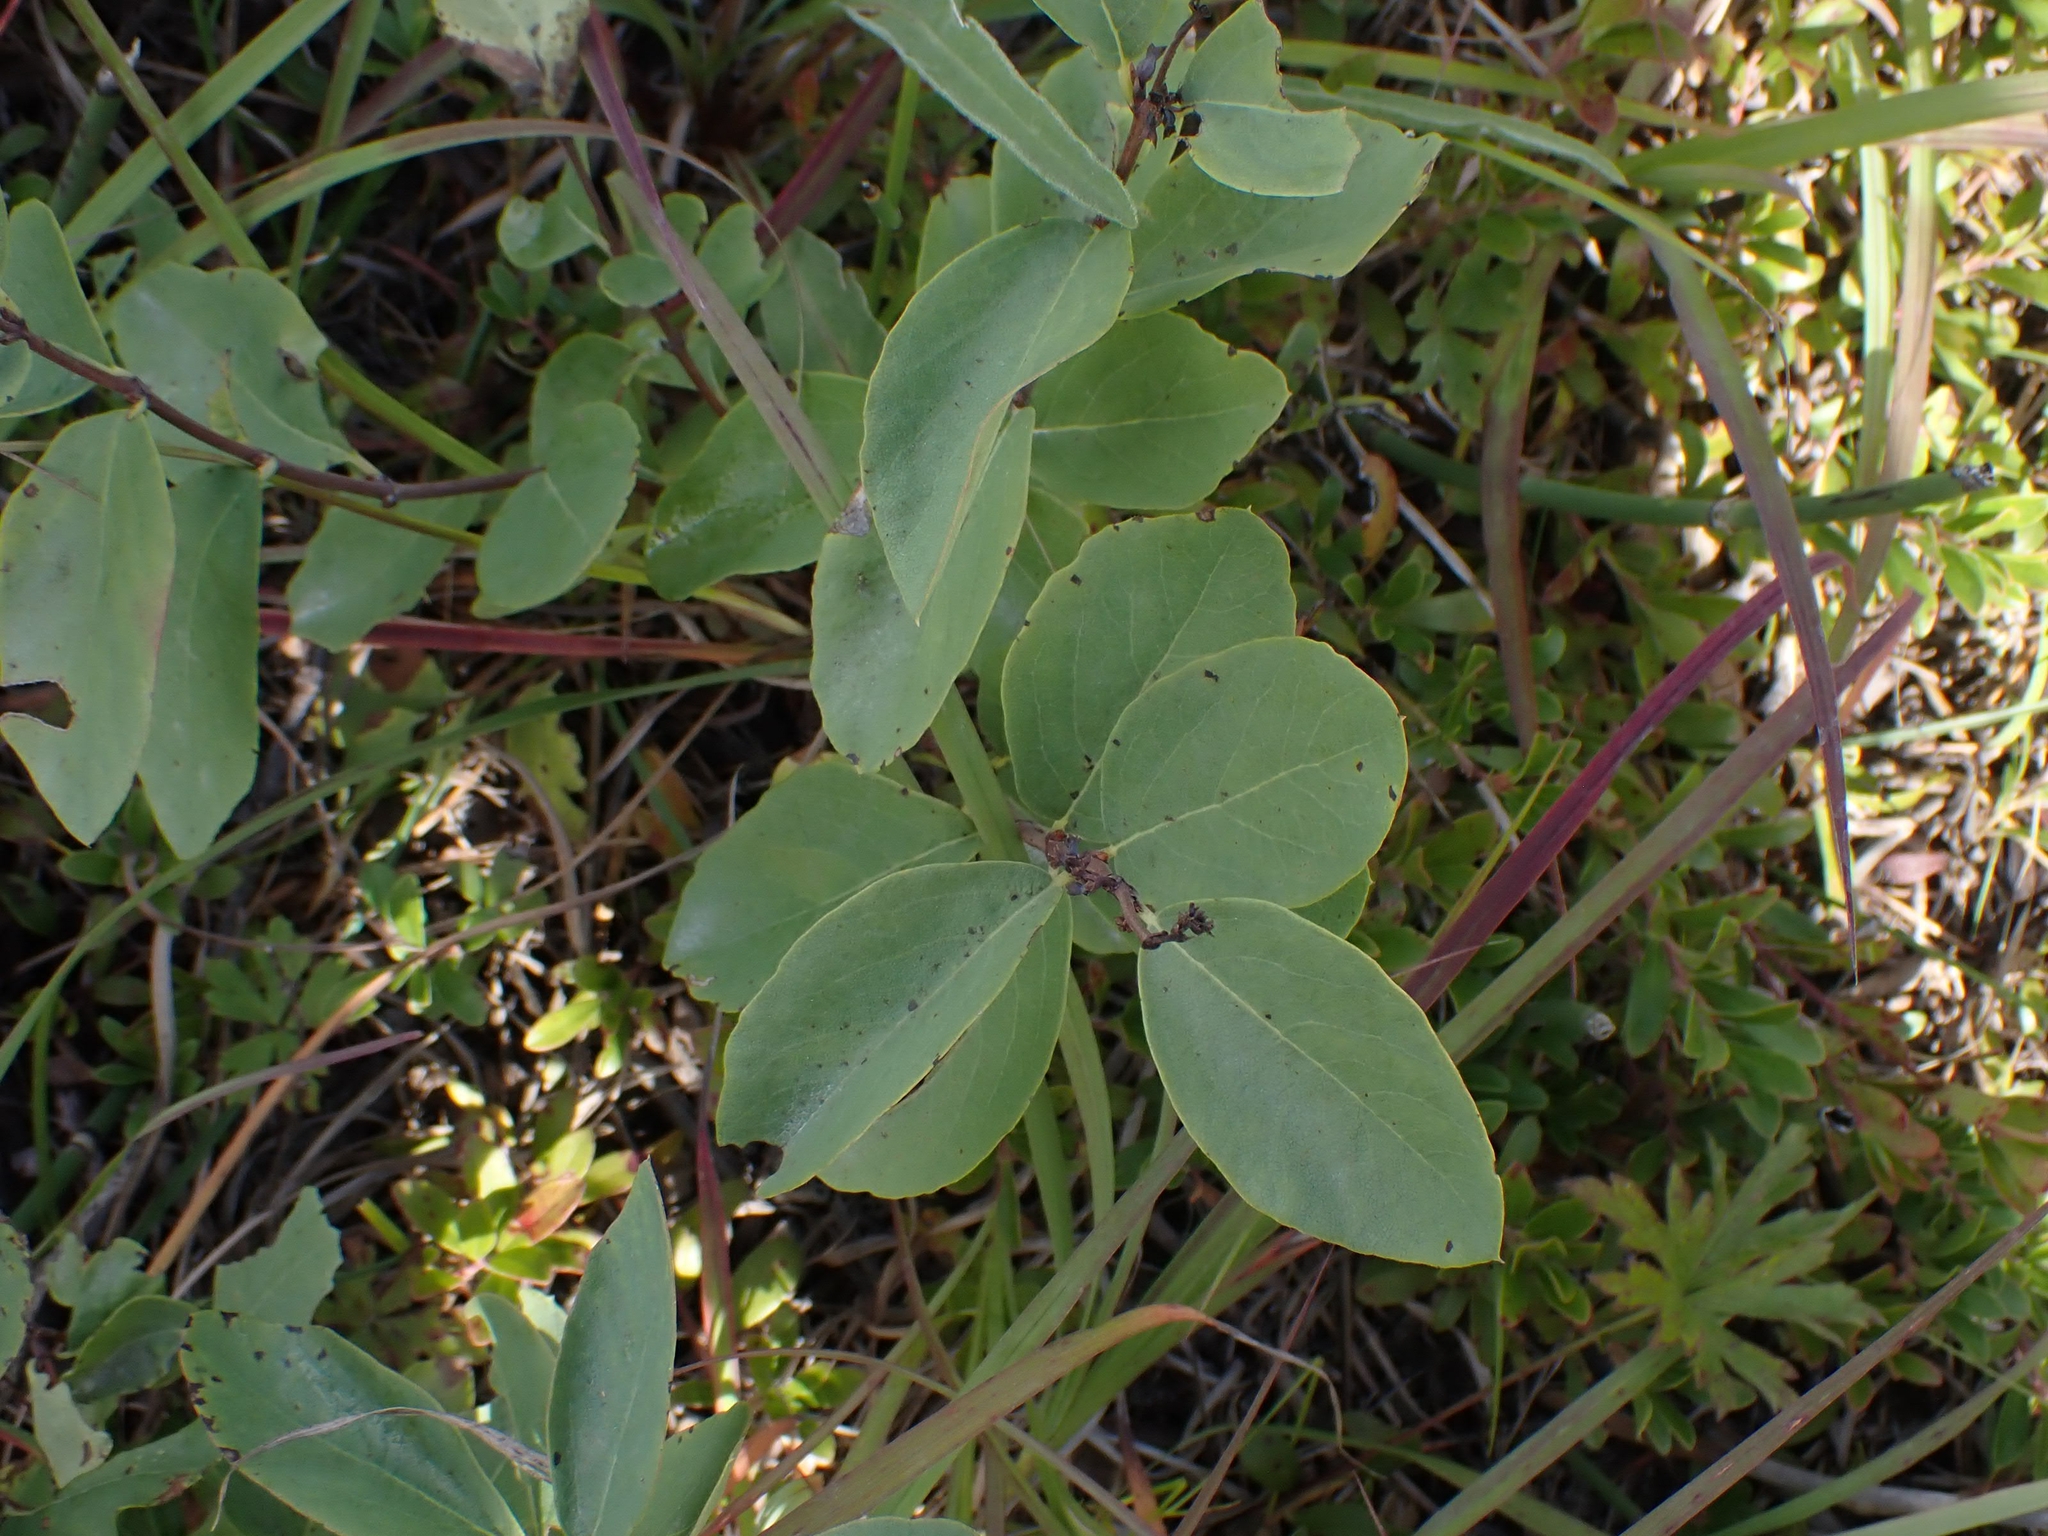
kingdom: Plantae
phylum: Tracheophyta
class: Magnoliopsida
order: Dipsacales
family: Caprifoliaceae
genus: Symphoricarpos
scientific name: Symphoricarpos occidentalis
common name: Wolfberry
